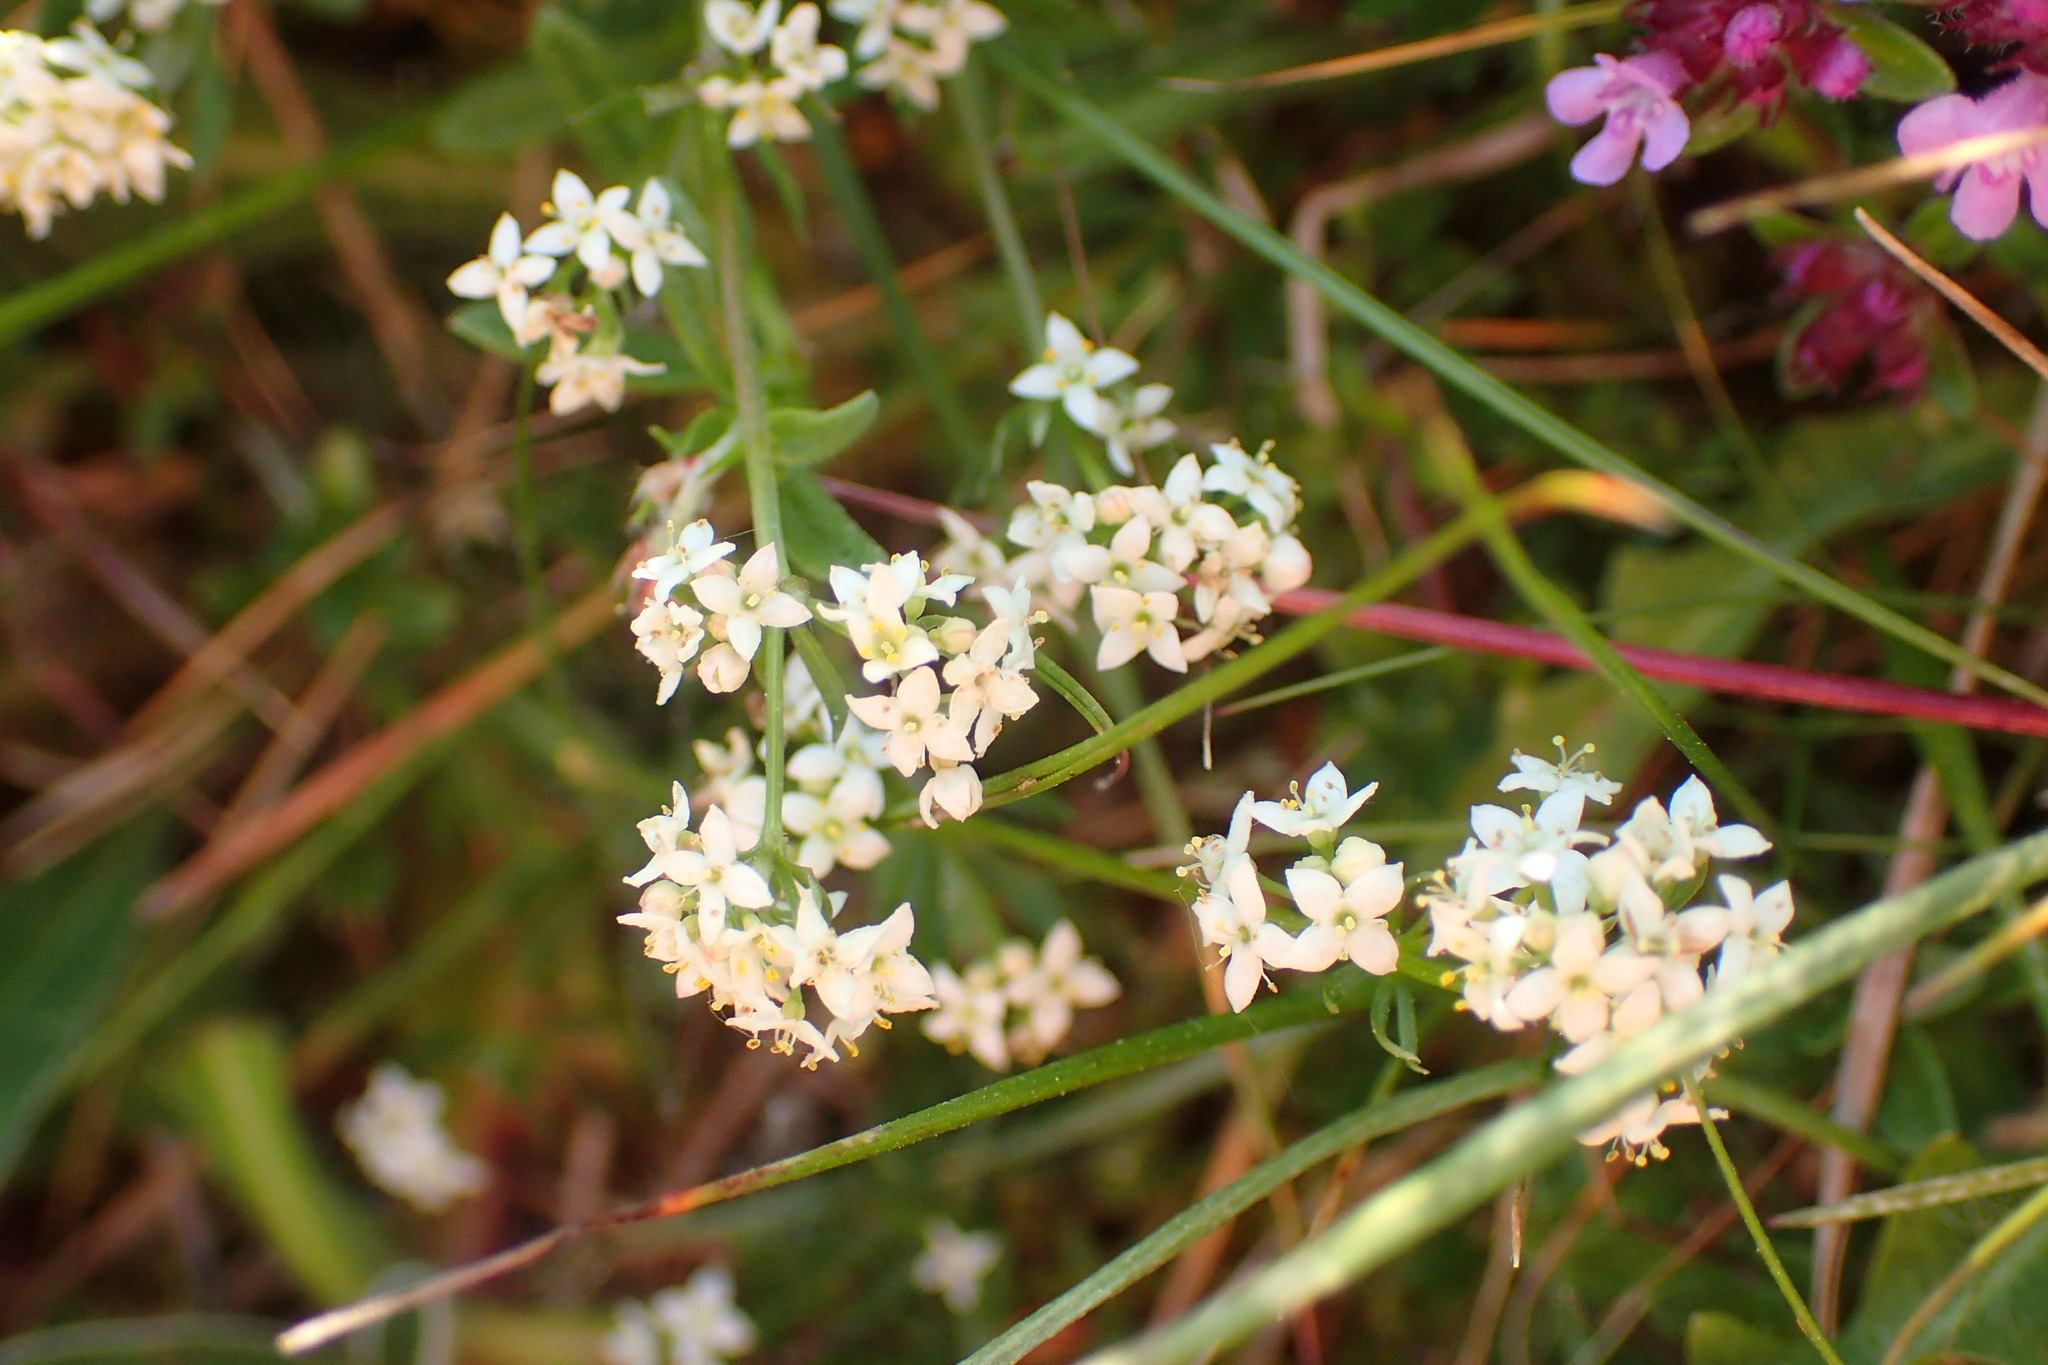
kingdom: Plantae
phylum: Tracheophyta
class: Magnoliopsida
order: Gentianales
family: Rubiaceae
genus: Galium
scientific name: Galium saxatile
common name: Heath bedstraw
